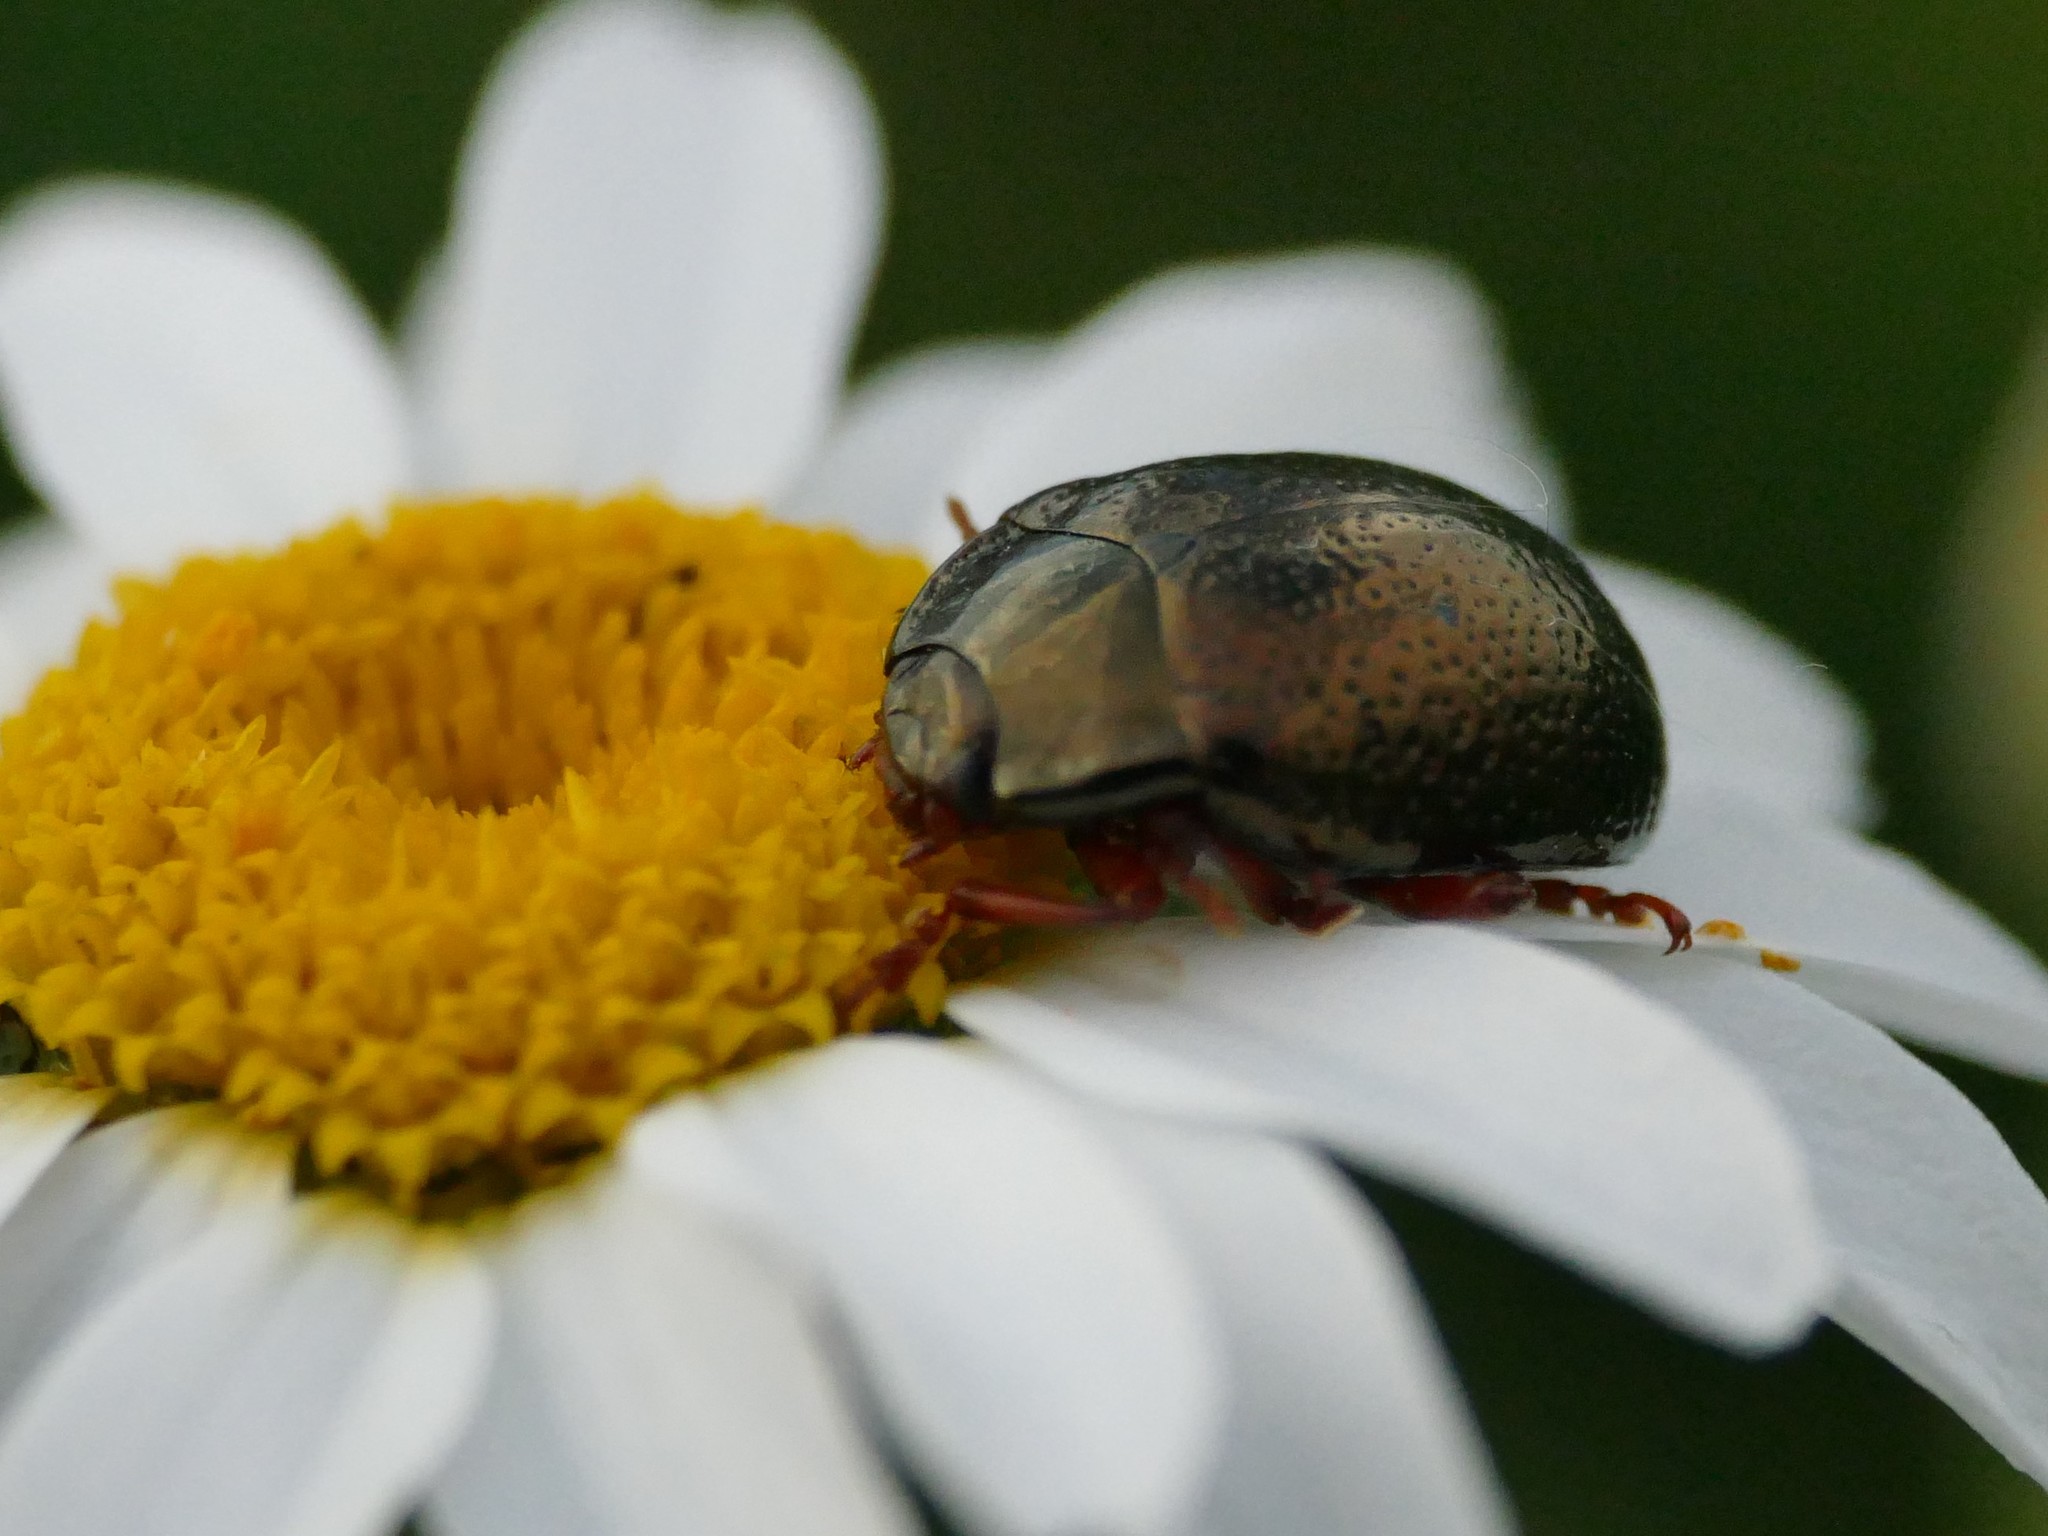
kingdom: Animalia
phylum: Arthropoda
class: Insecta
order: Coleoptera
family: Chrysomelidae
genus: Chrysolina
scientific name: Chrysolina bankii
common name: Leaf beetle
